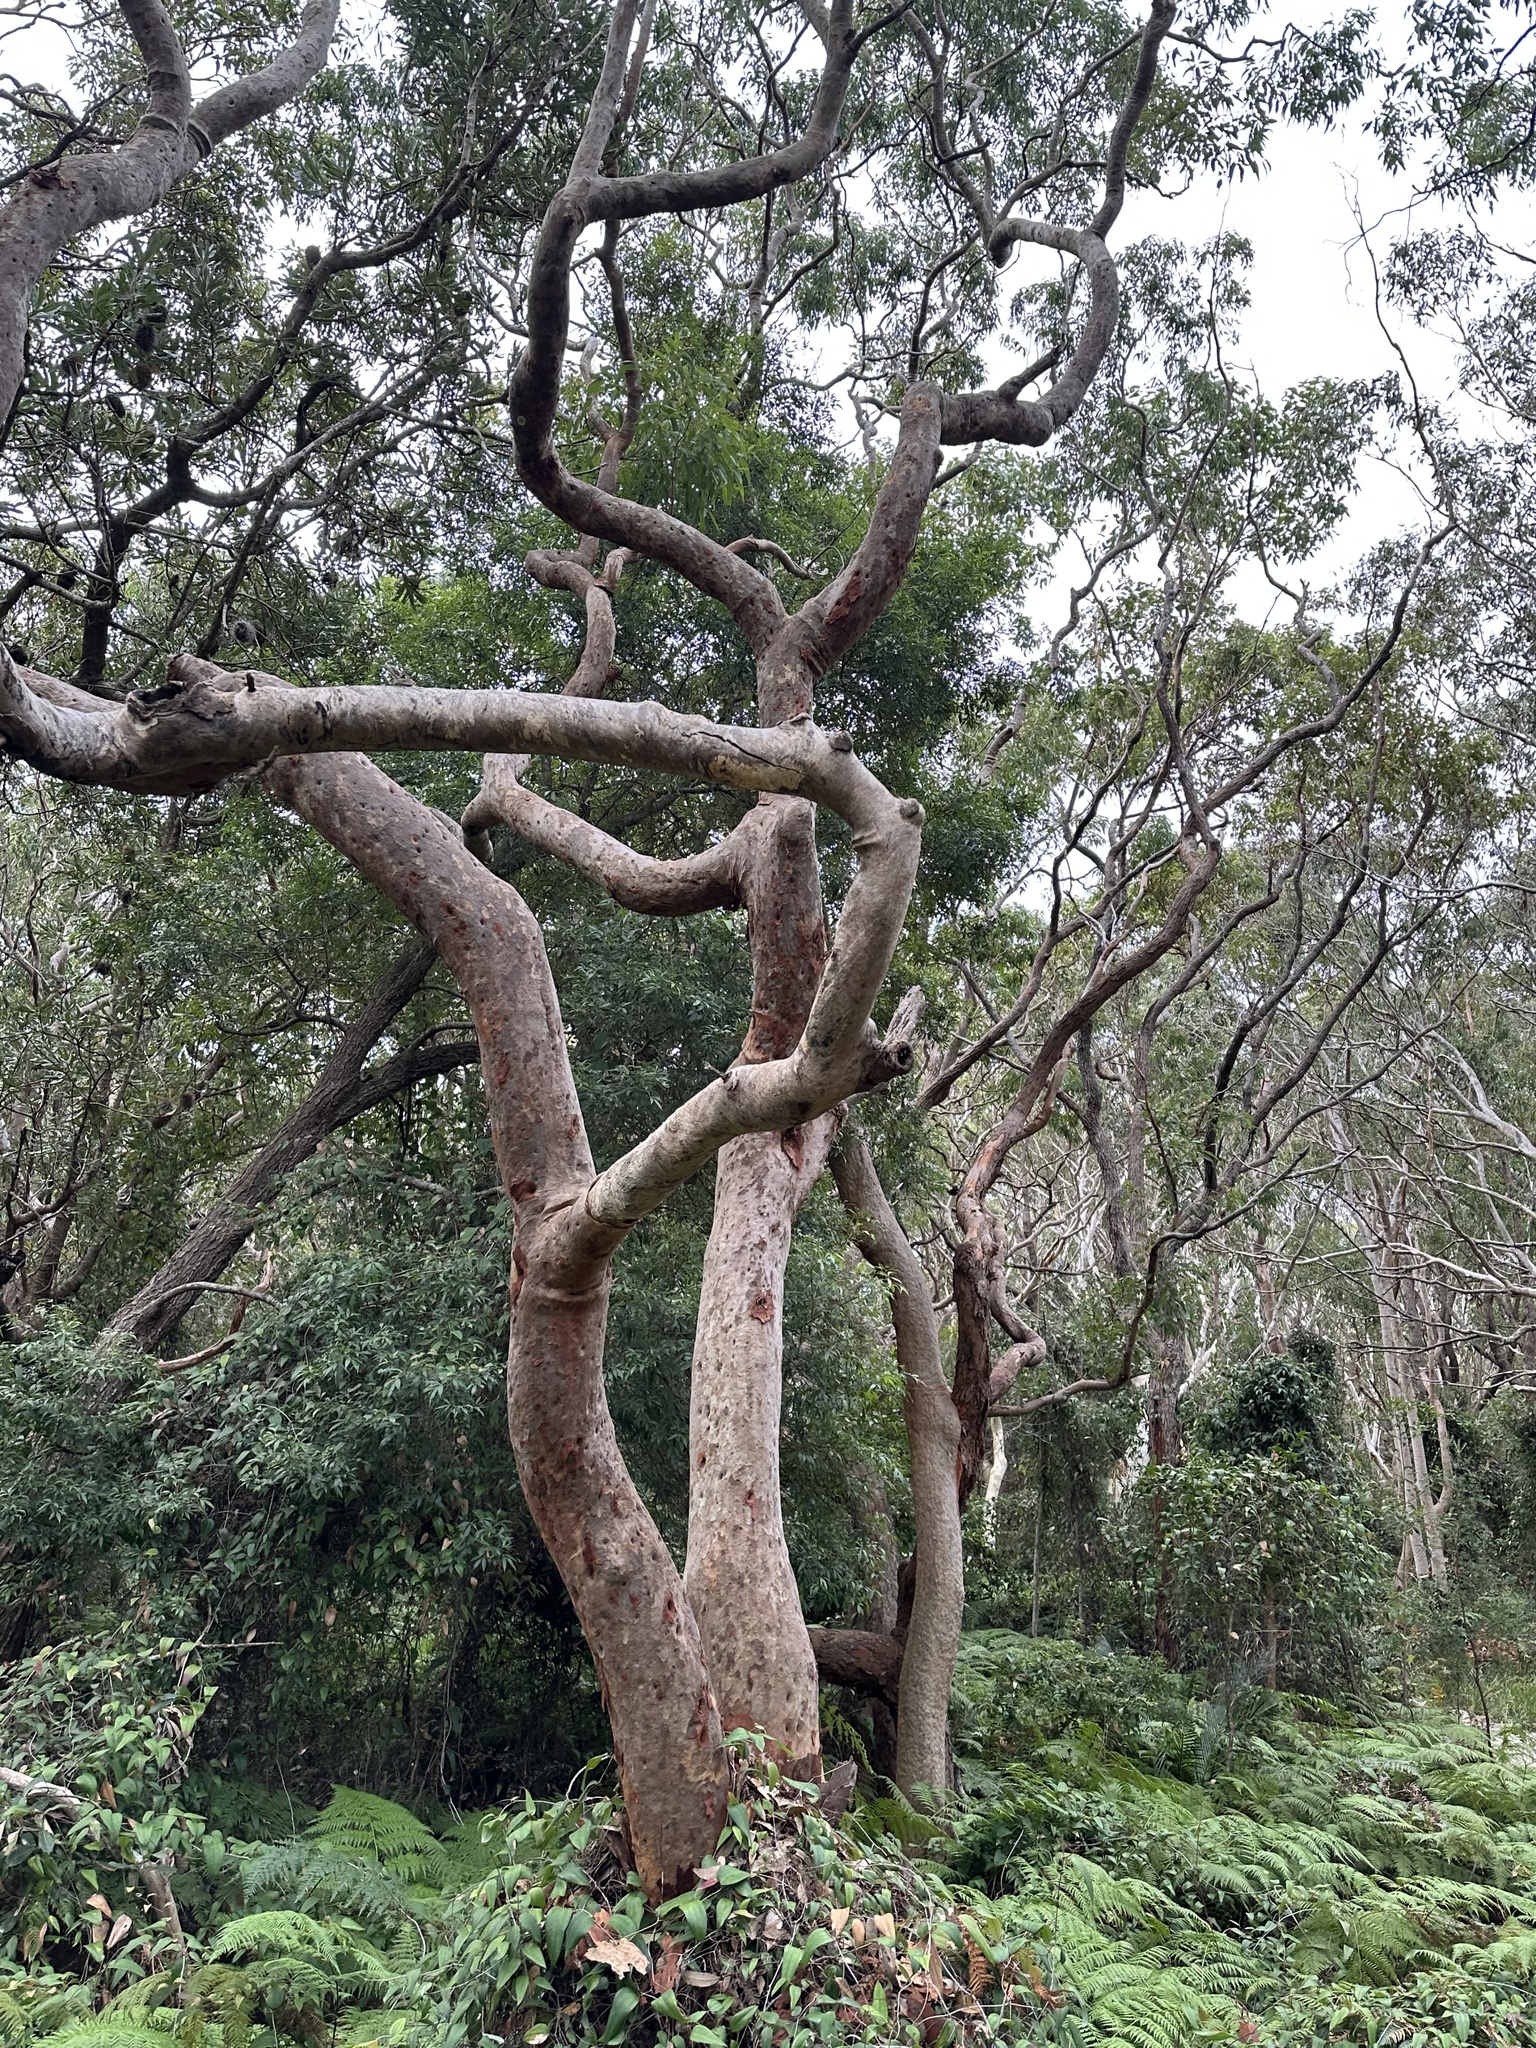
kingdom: Plantae
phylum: Tracheophyta
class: Magnoliopsida
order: Myrtales
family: Myrtaceae
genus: Angophora
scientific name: Angophora costata
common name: Gum myrtle
